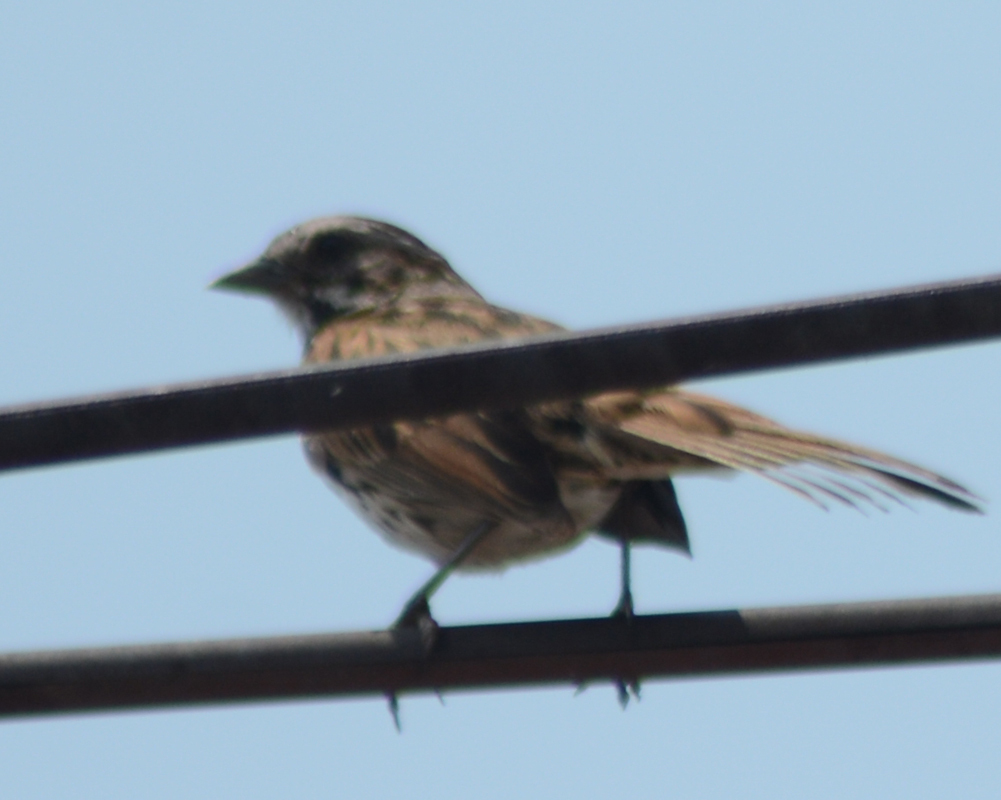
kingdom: Animalia
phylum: Chordata
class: Aves
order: Passeriformes
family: Passerellidae
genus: Melospiza
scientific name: Melospiza melodia
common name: Song sparrow
